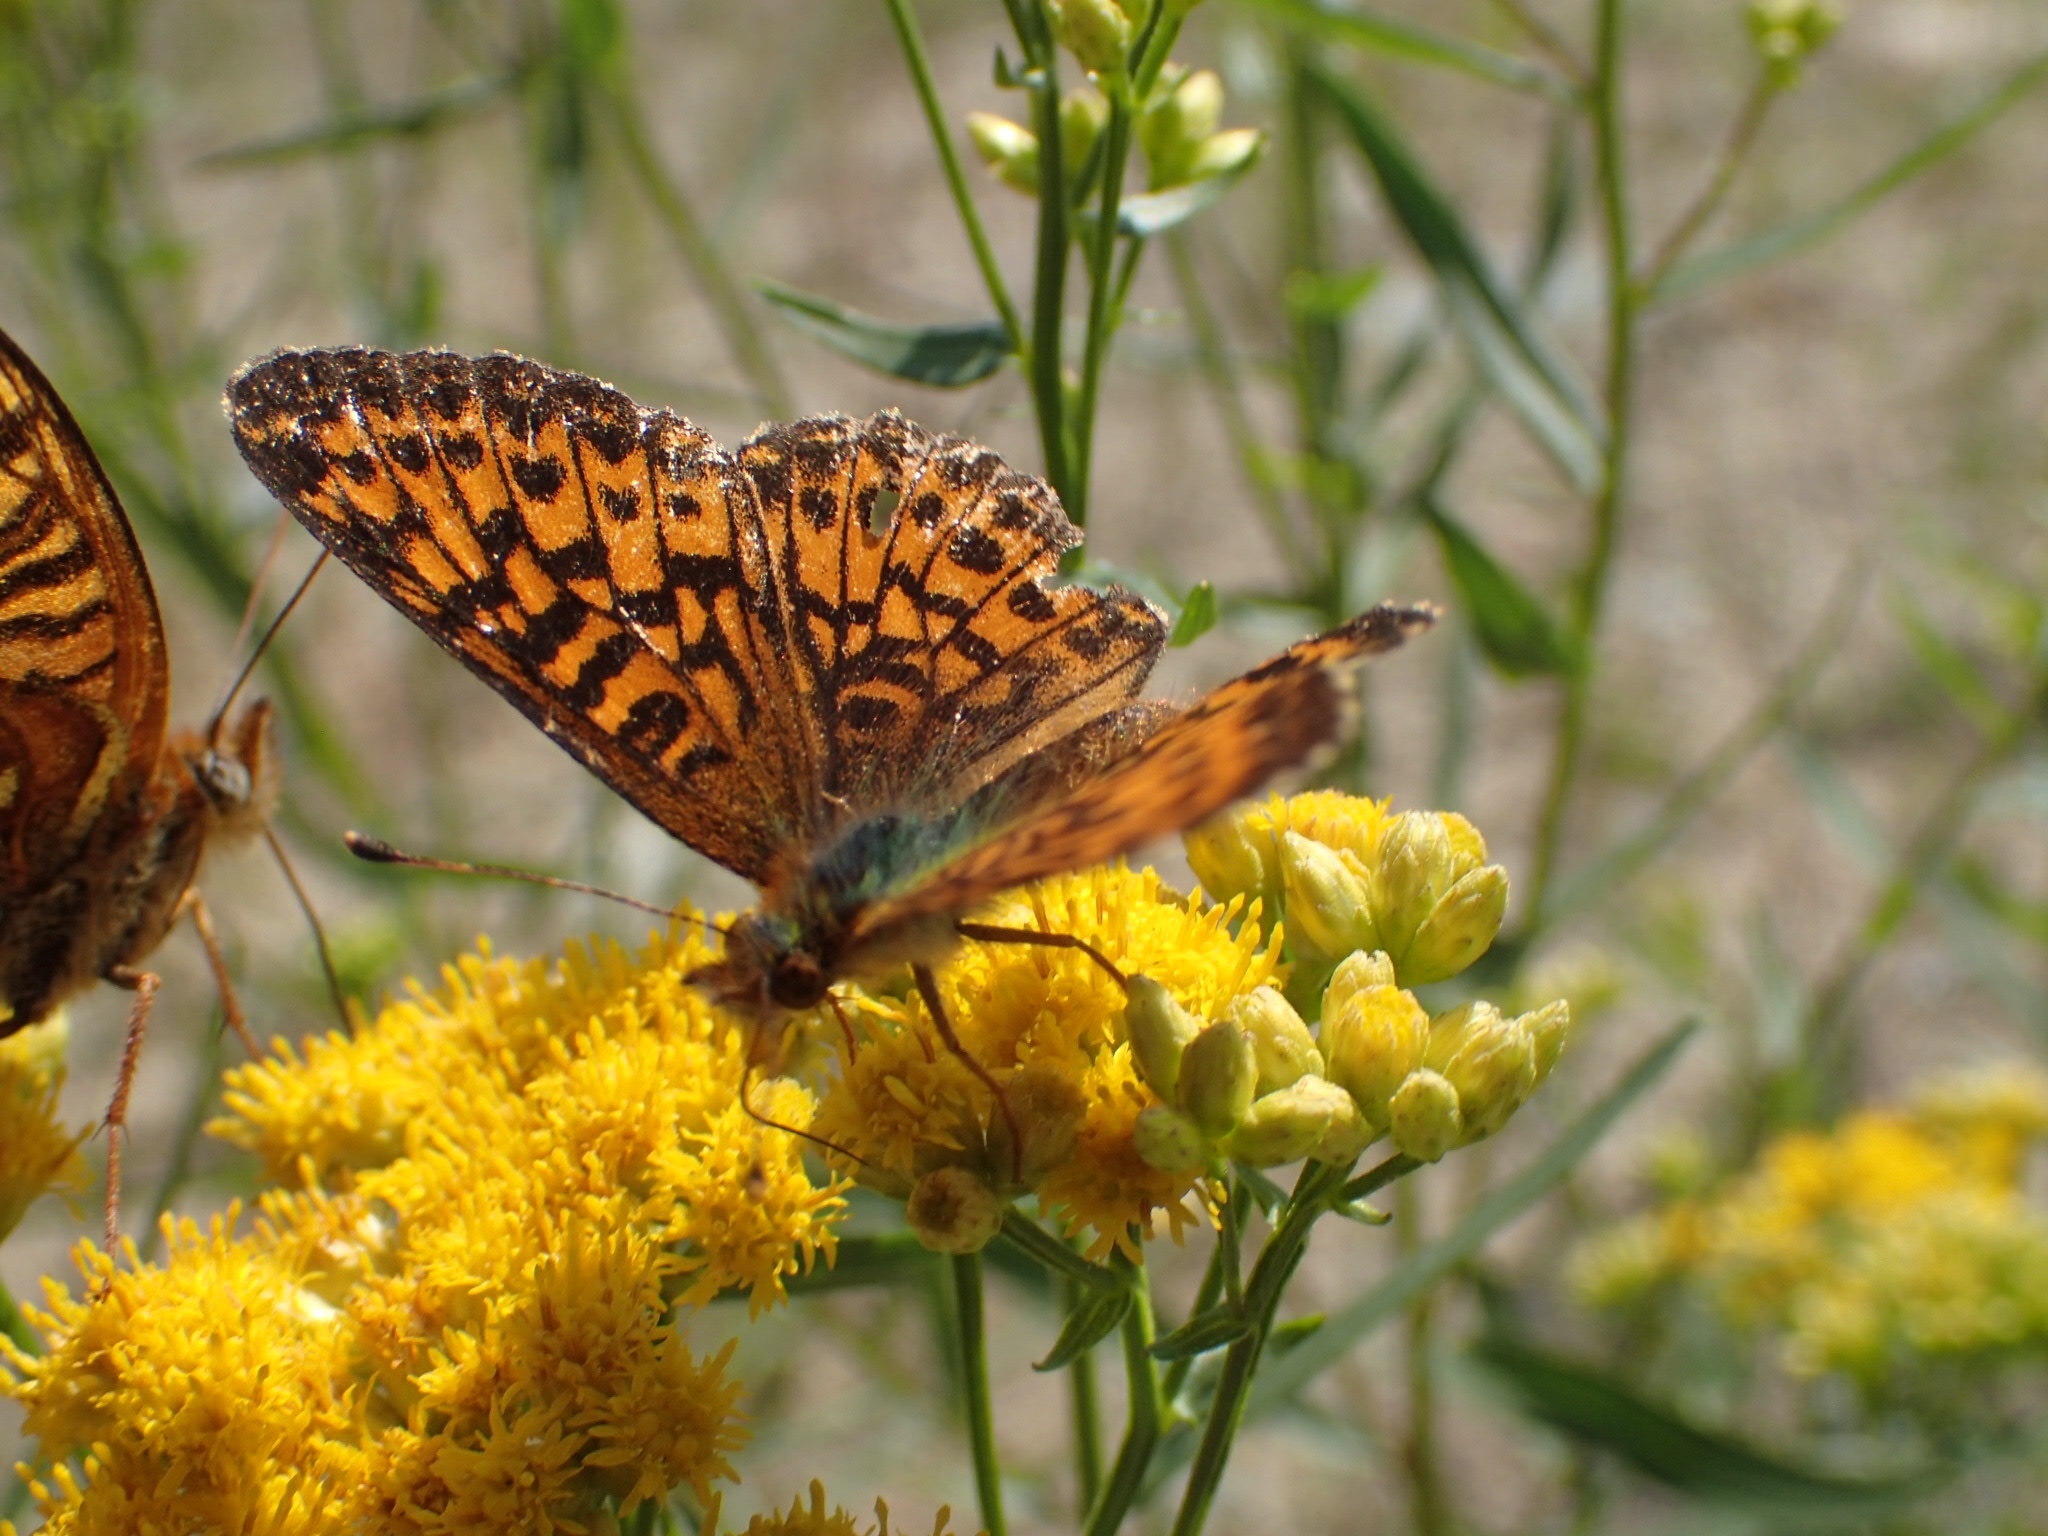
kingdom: Animalia
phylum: Arthropoda
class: Insecta
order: Lepidoptera
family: Nymphalidae
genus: Boloria
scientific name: Boloria chariclea
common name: Arctic fritillary
